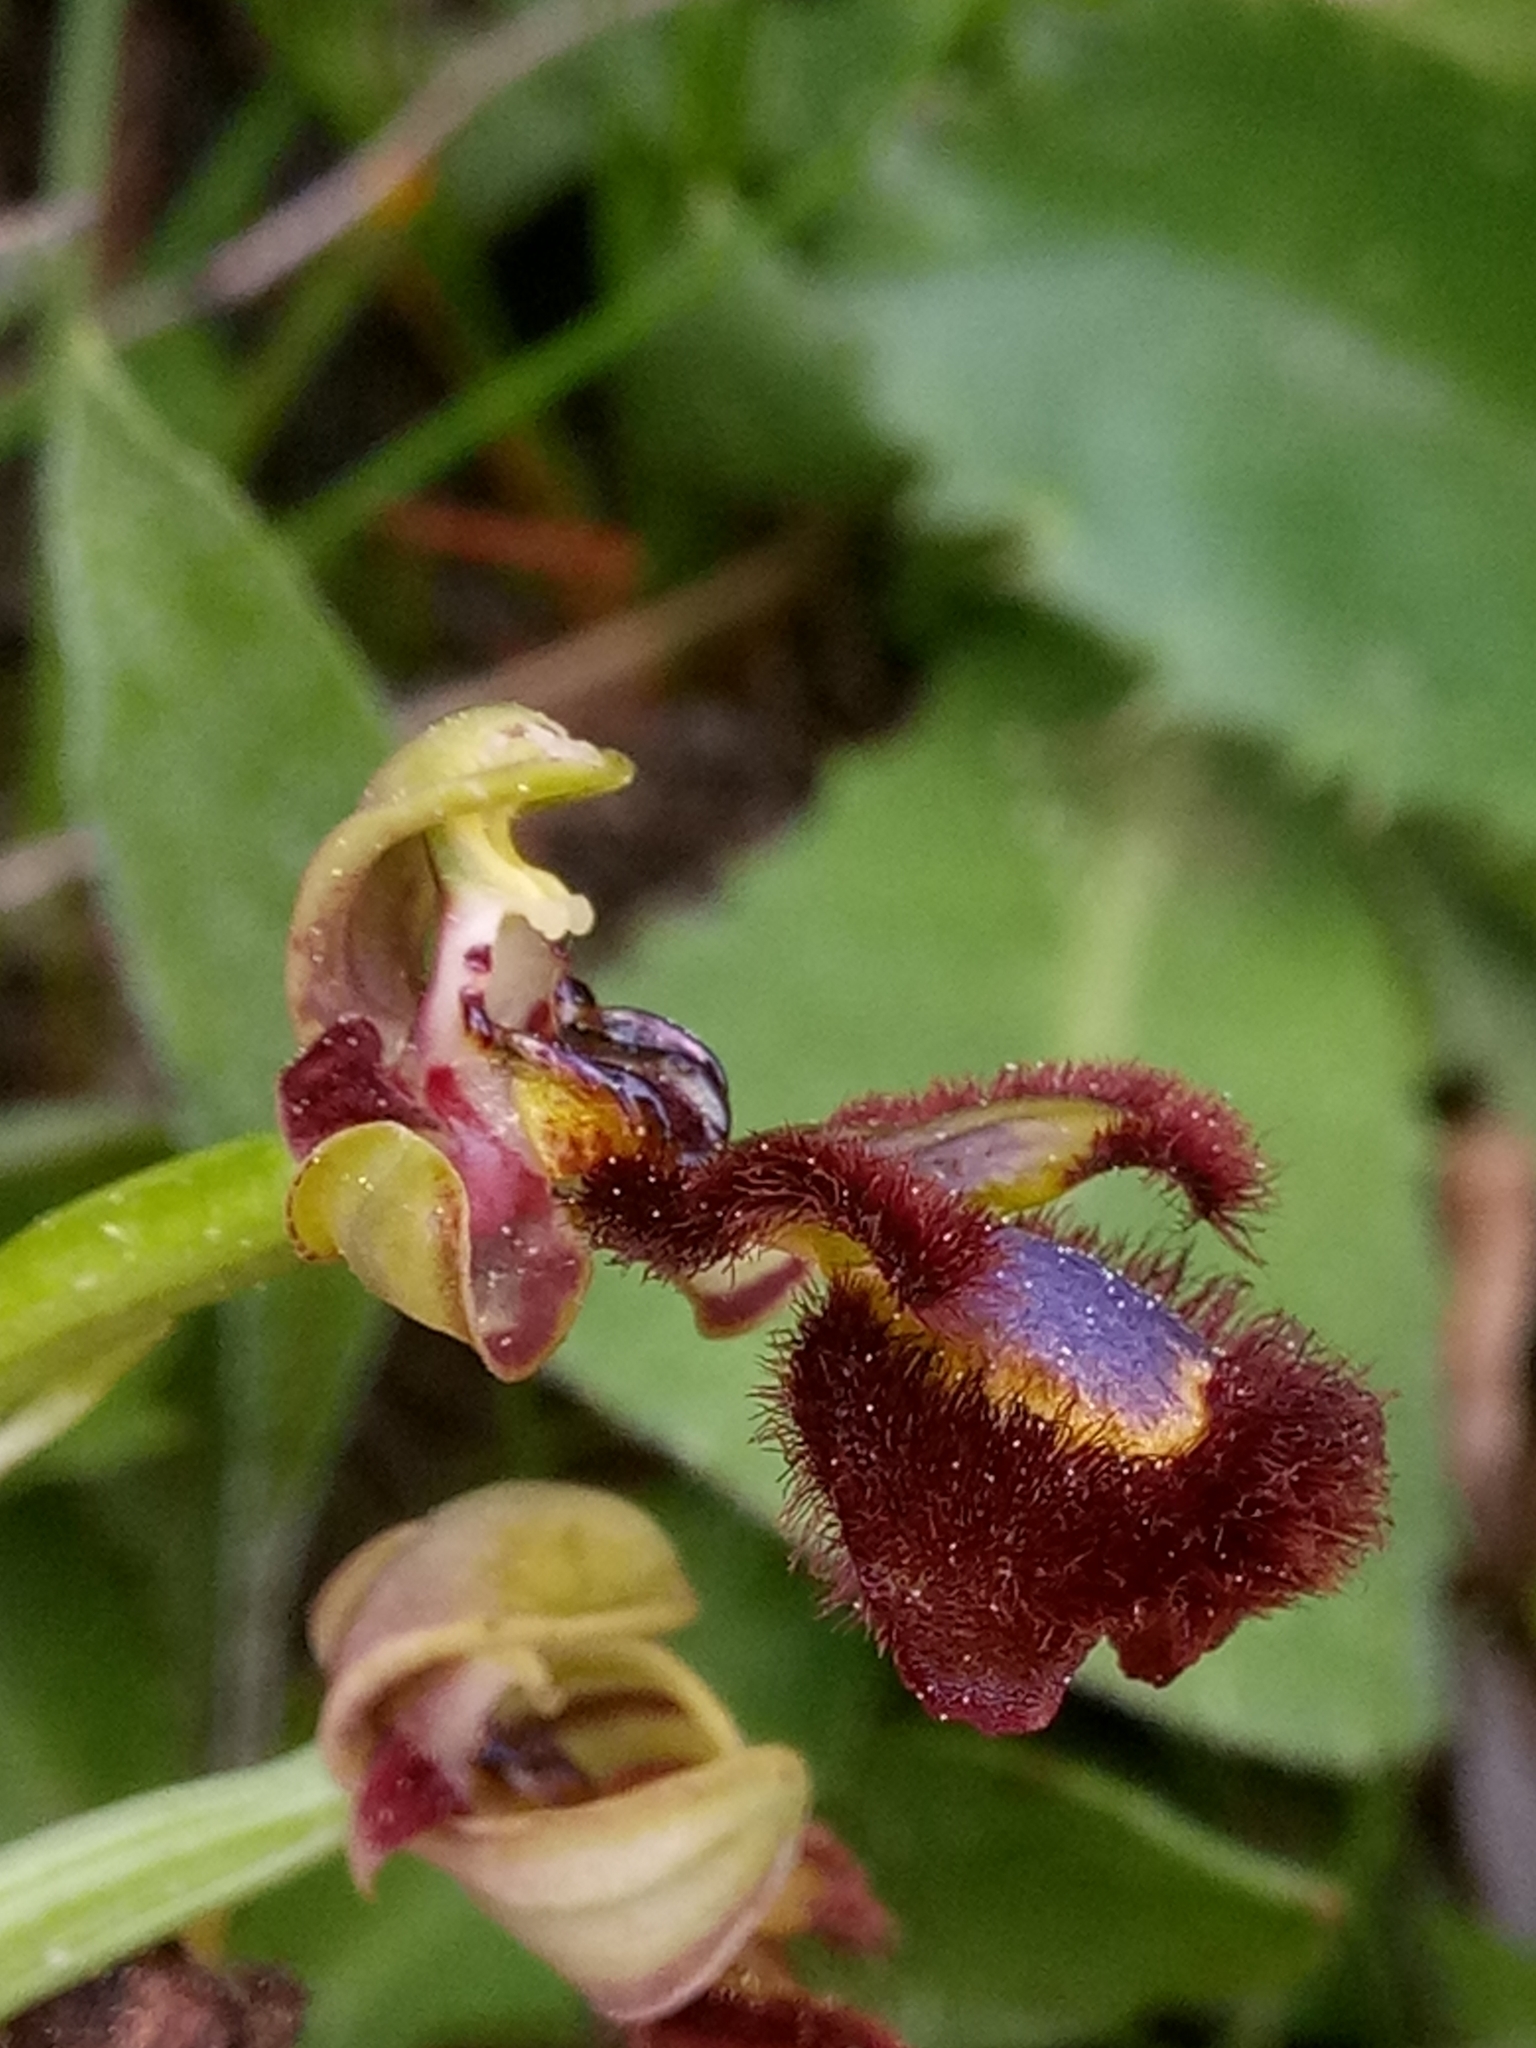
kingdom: Plantae
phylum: Tracheophyta
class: Liliopsida
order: Asparagales
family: Orchidaceae
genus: Ophrys
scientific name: Ophrys speculum
